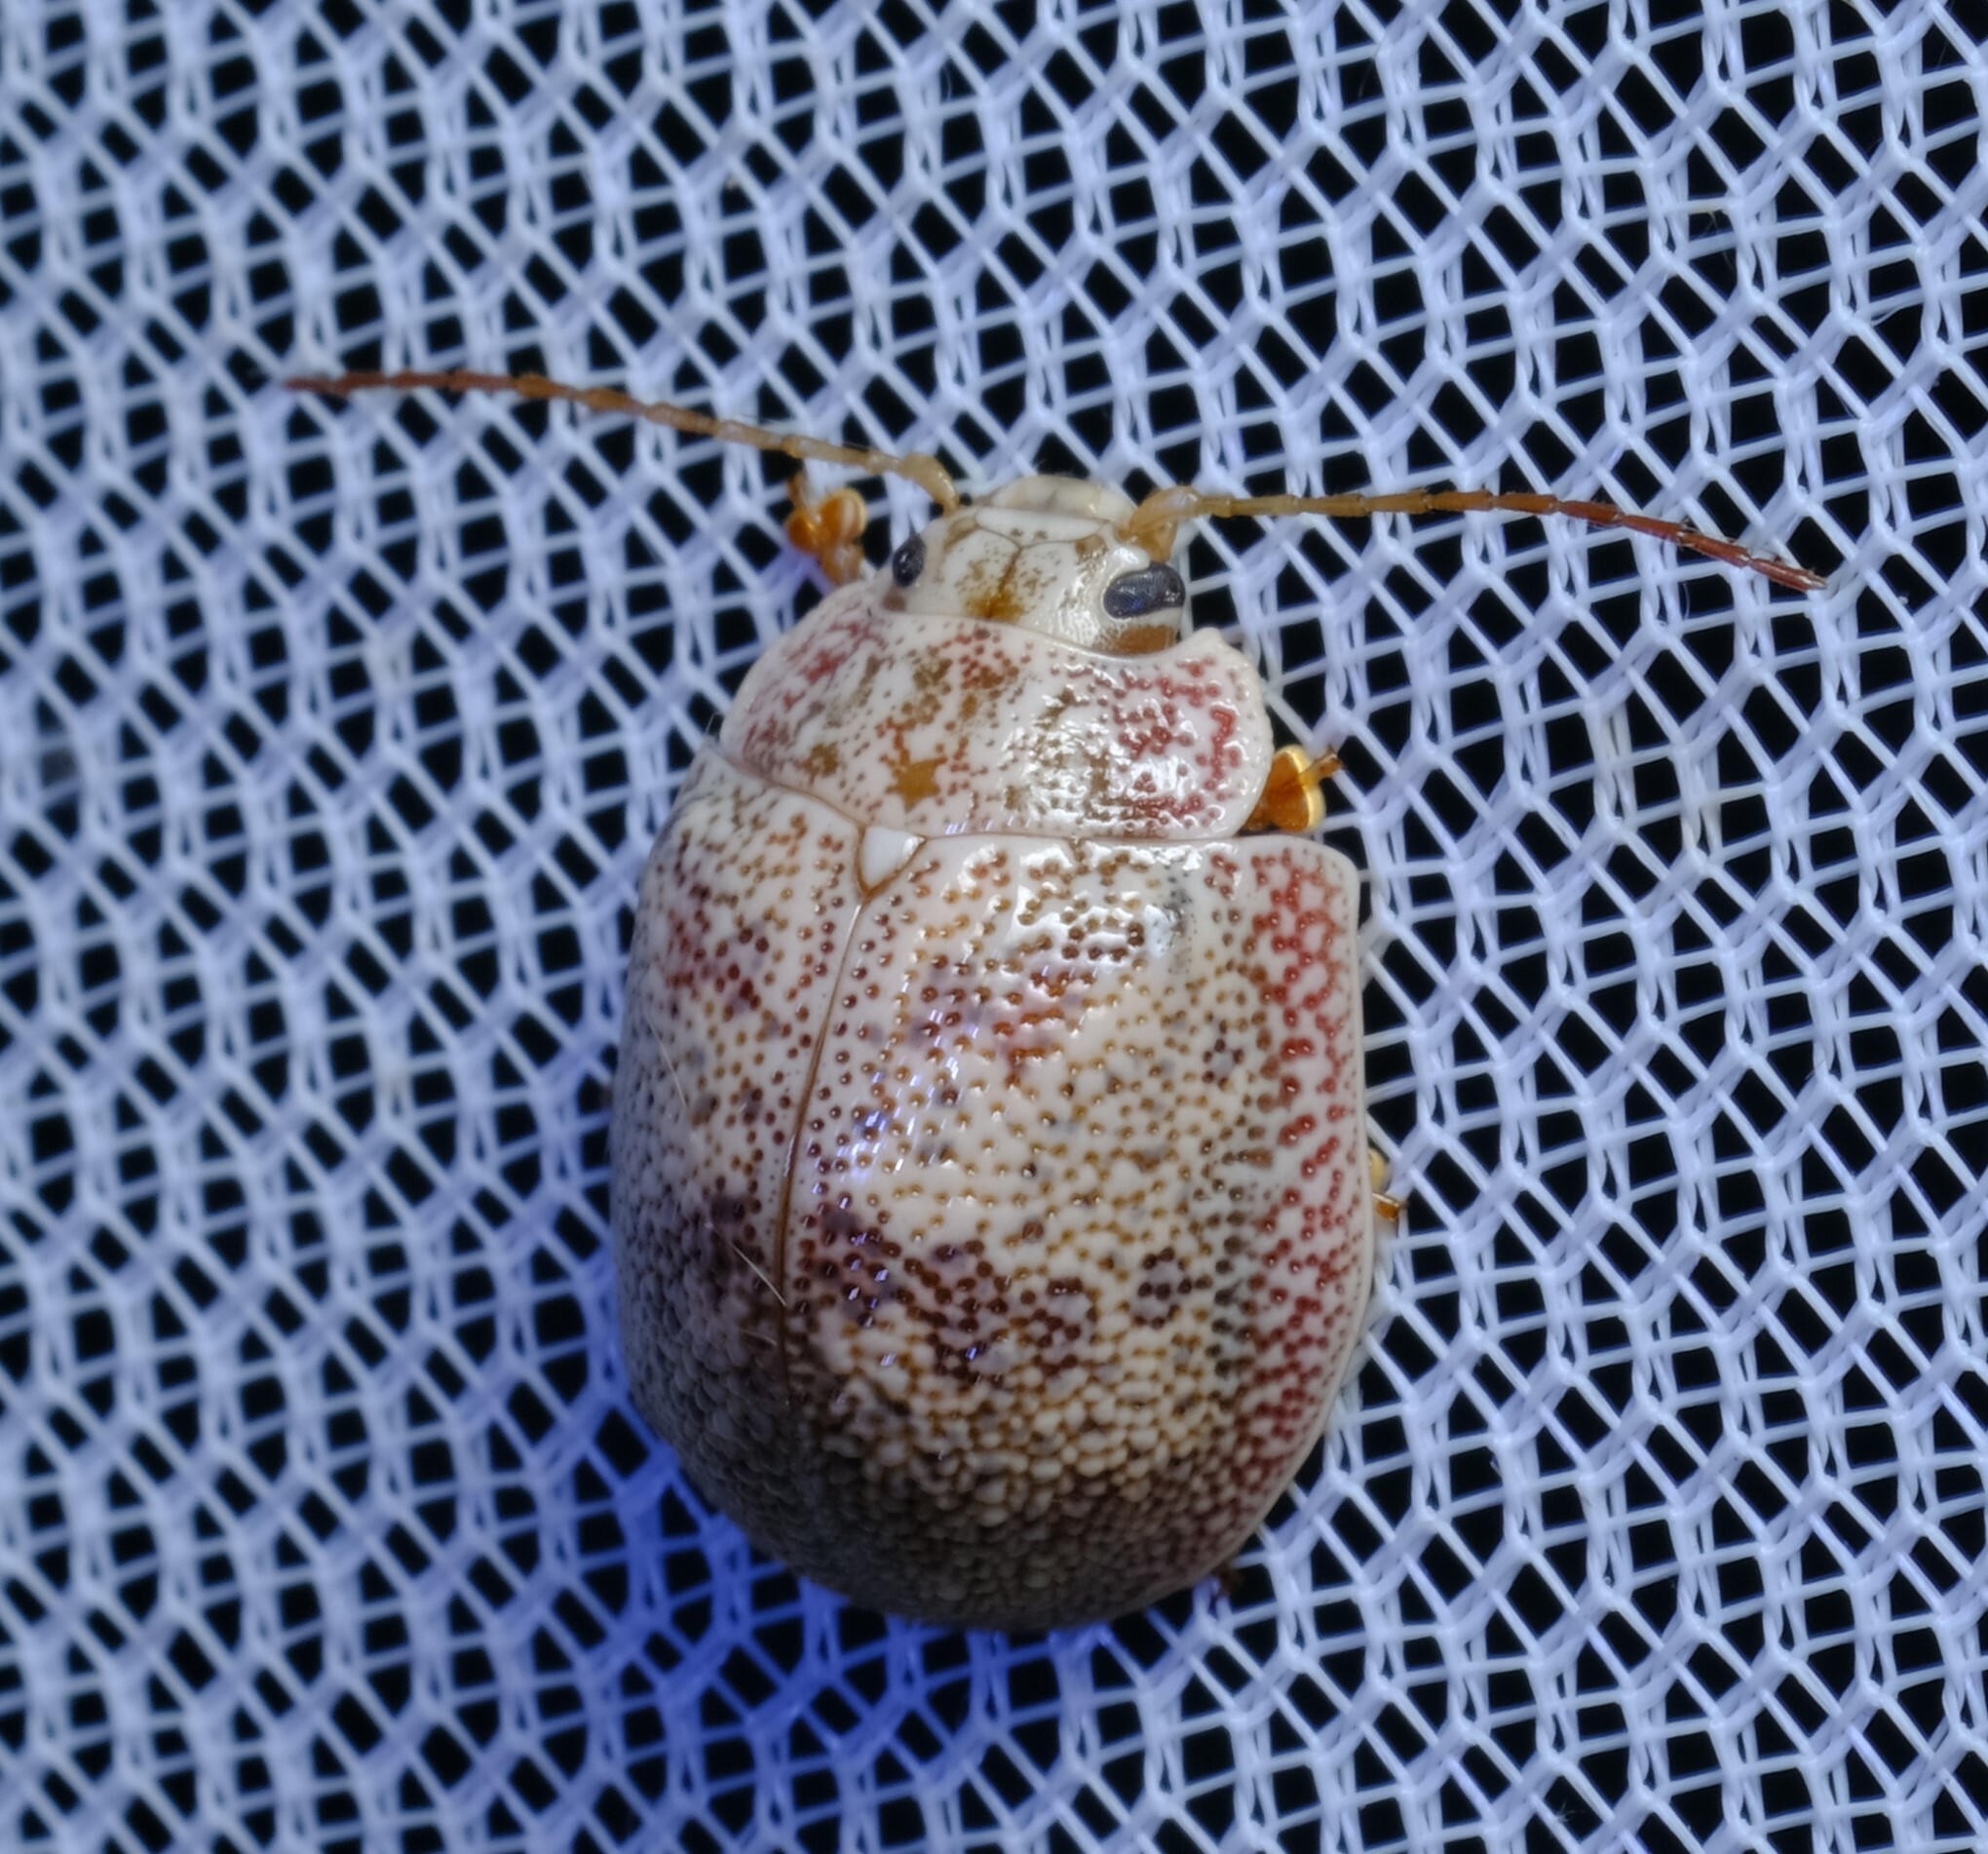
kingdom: Animalia
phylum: Arthropoda
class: Insecta
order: Coleoptera
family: Chrysomelidae
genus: Paropsis
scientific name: Paropsis charybdis
